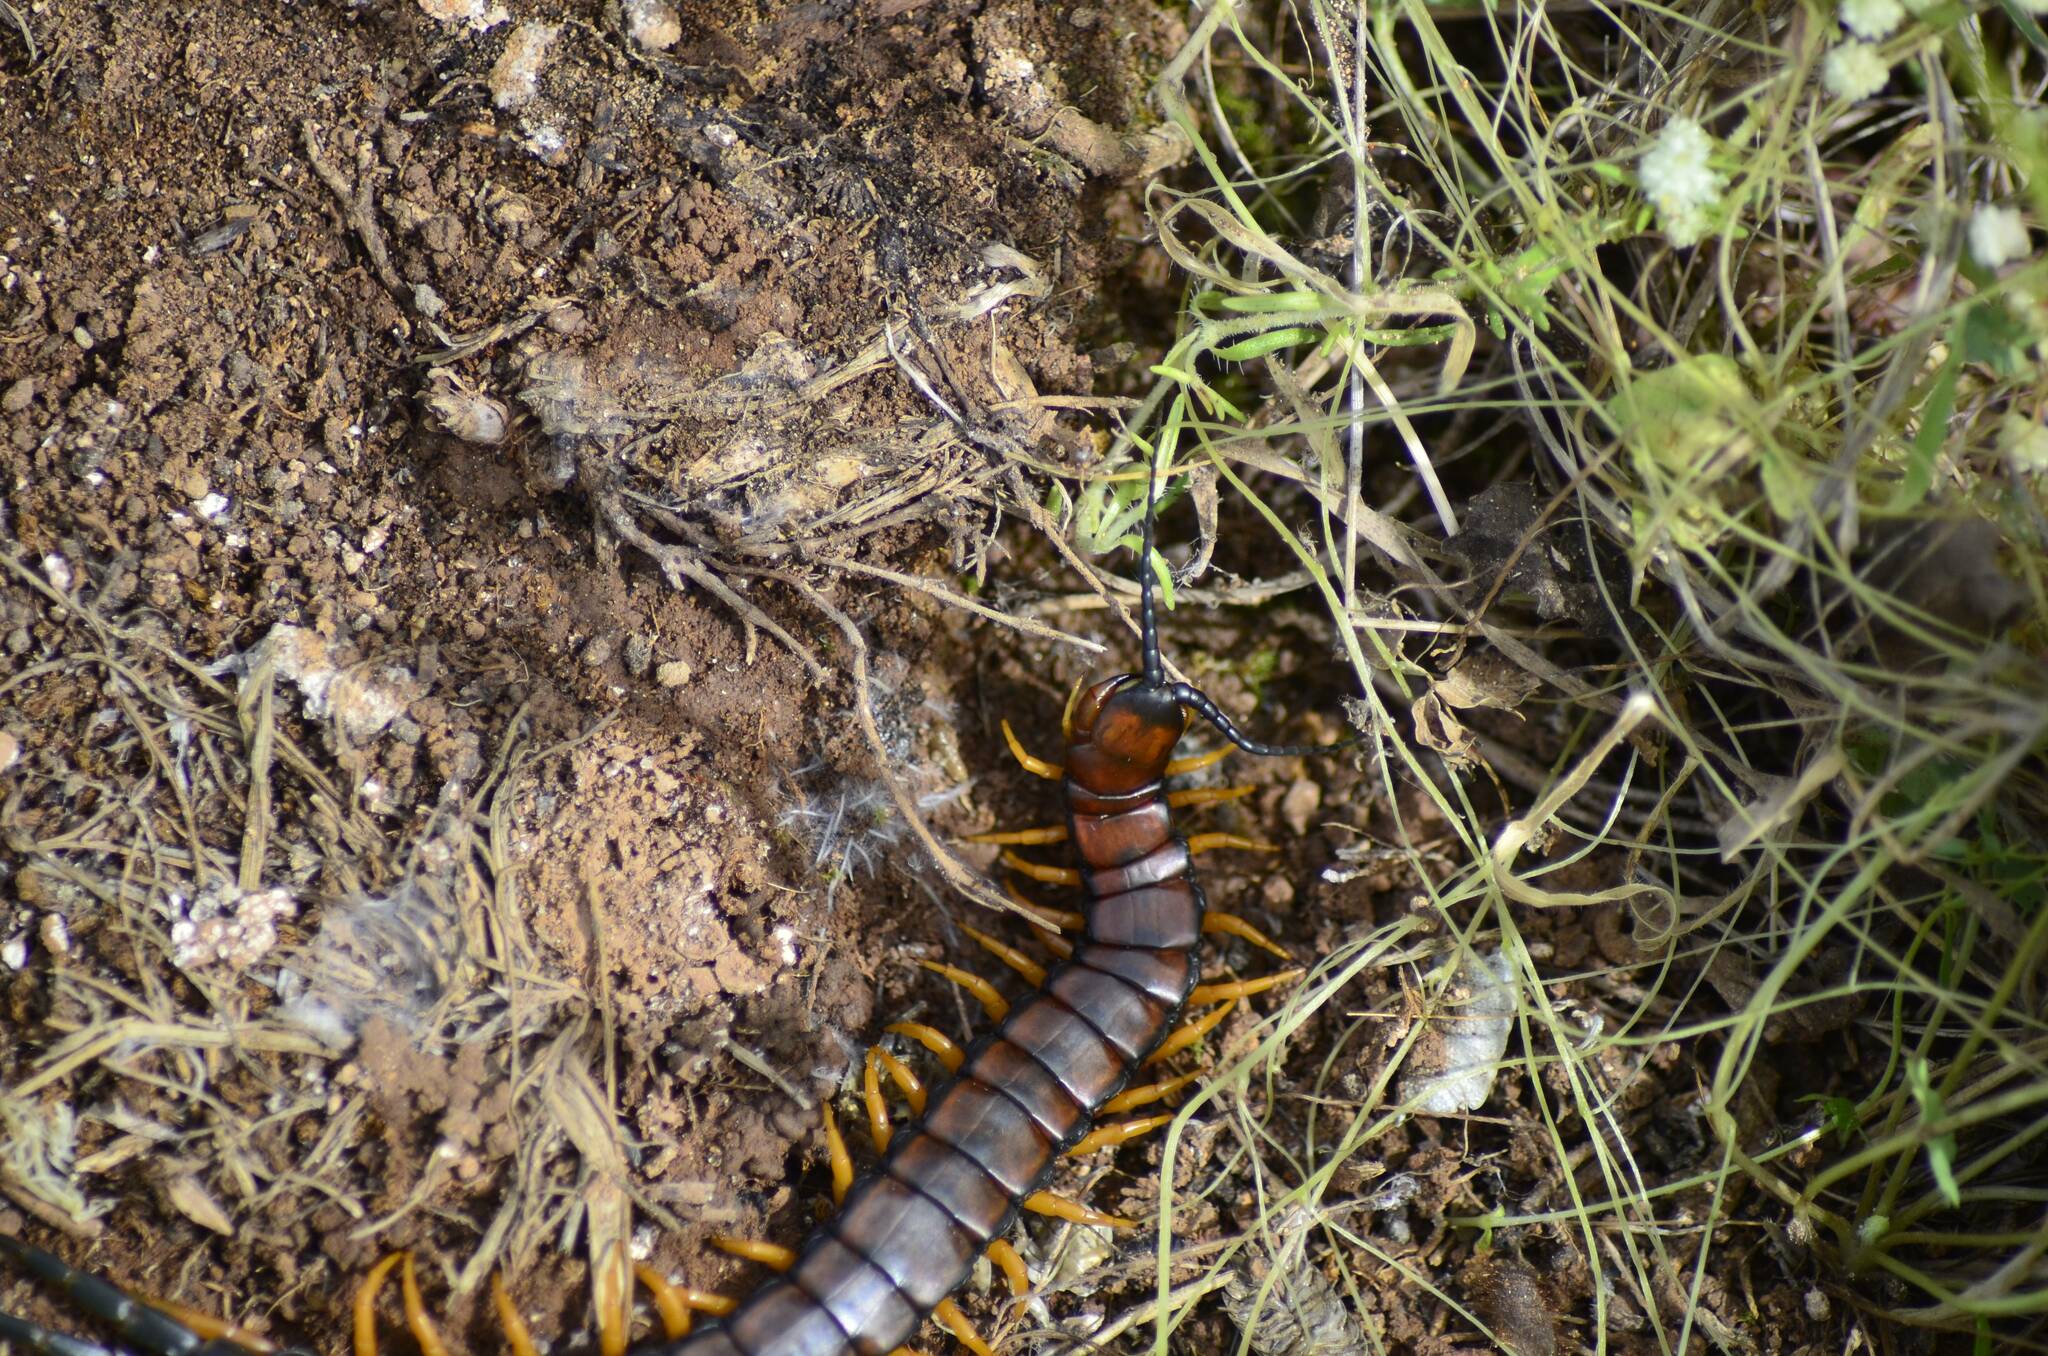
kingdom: Animalia
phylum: Arthropoda
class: Chilopoda
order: Scolopendromorpha
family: Scolopendridae
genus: Scolopendra
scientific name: Scolopendra cingulata
